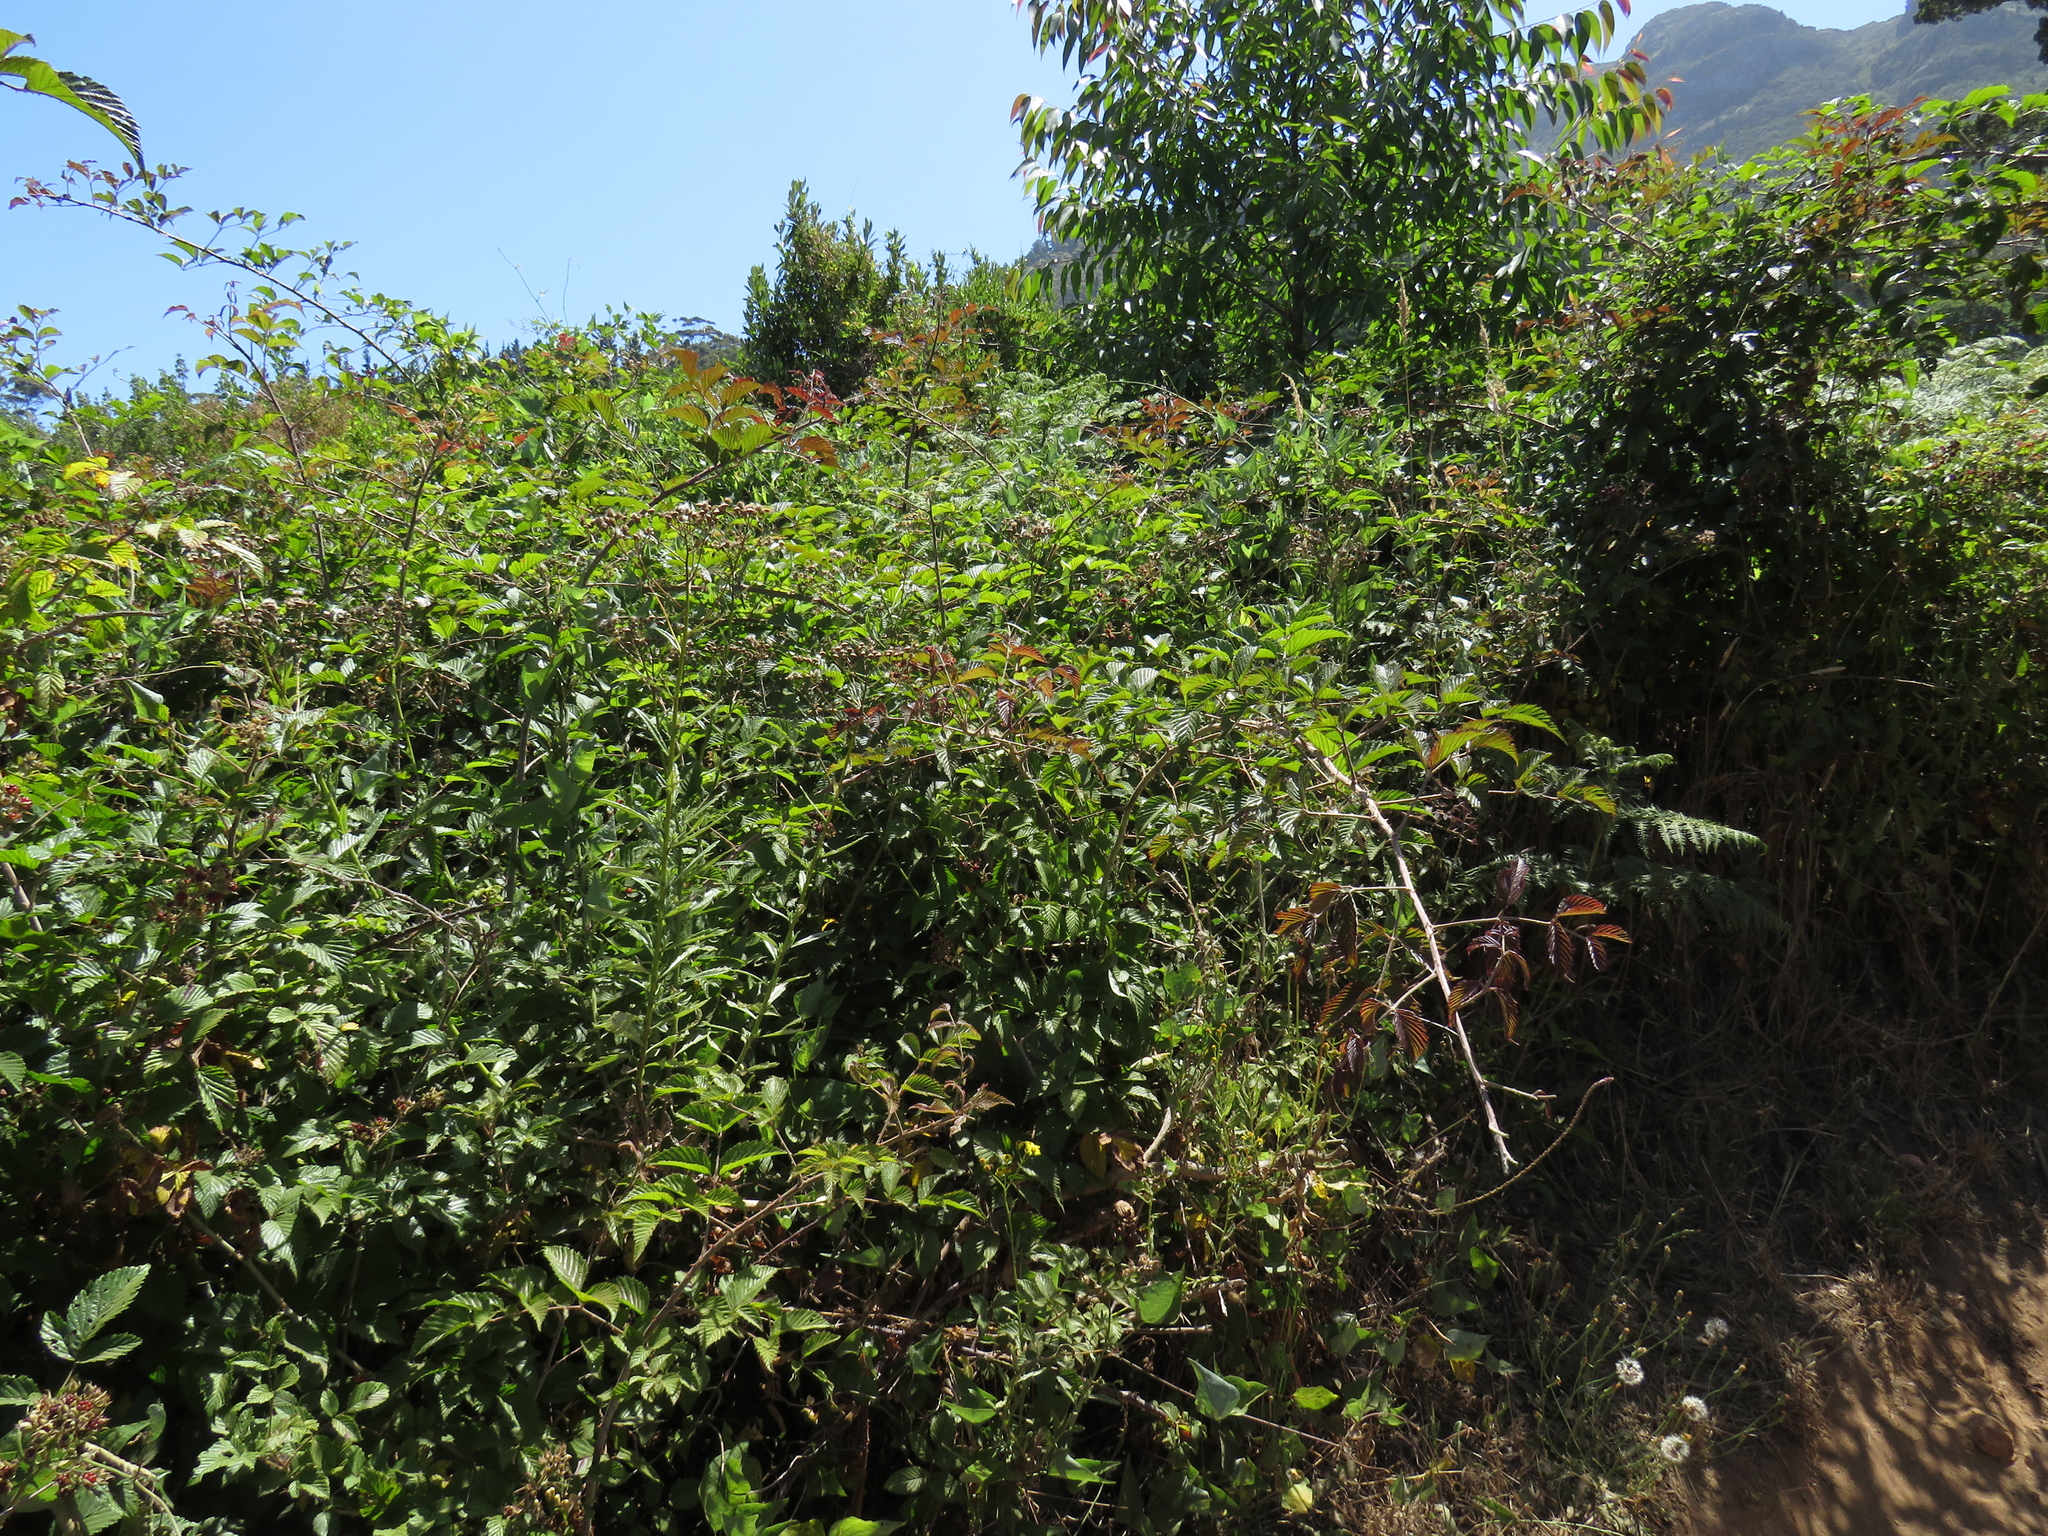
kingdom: Plantae
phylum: Tracheophyta
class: Magnoliopsida
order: Rosales
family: Rosaceae
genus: Rubus
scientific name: Rubus pinnatus
